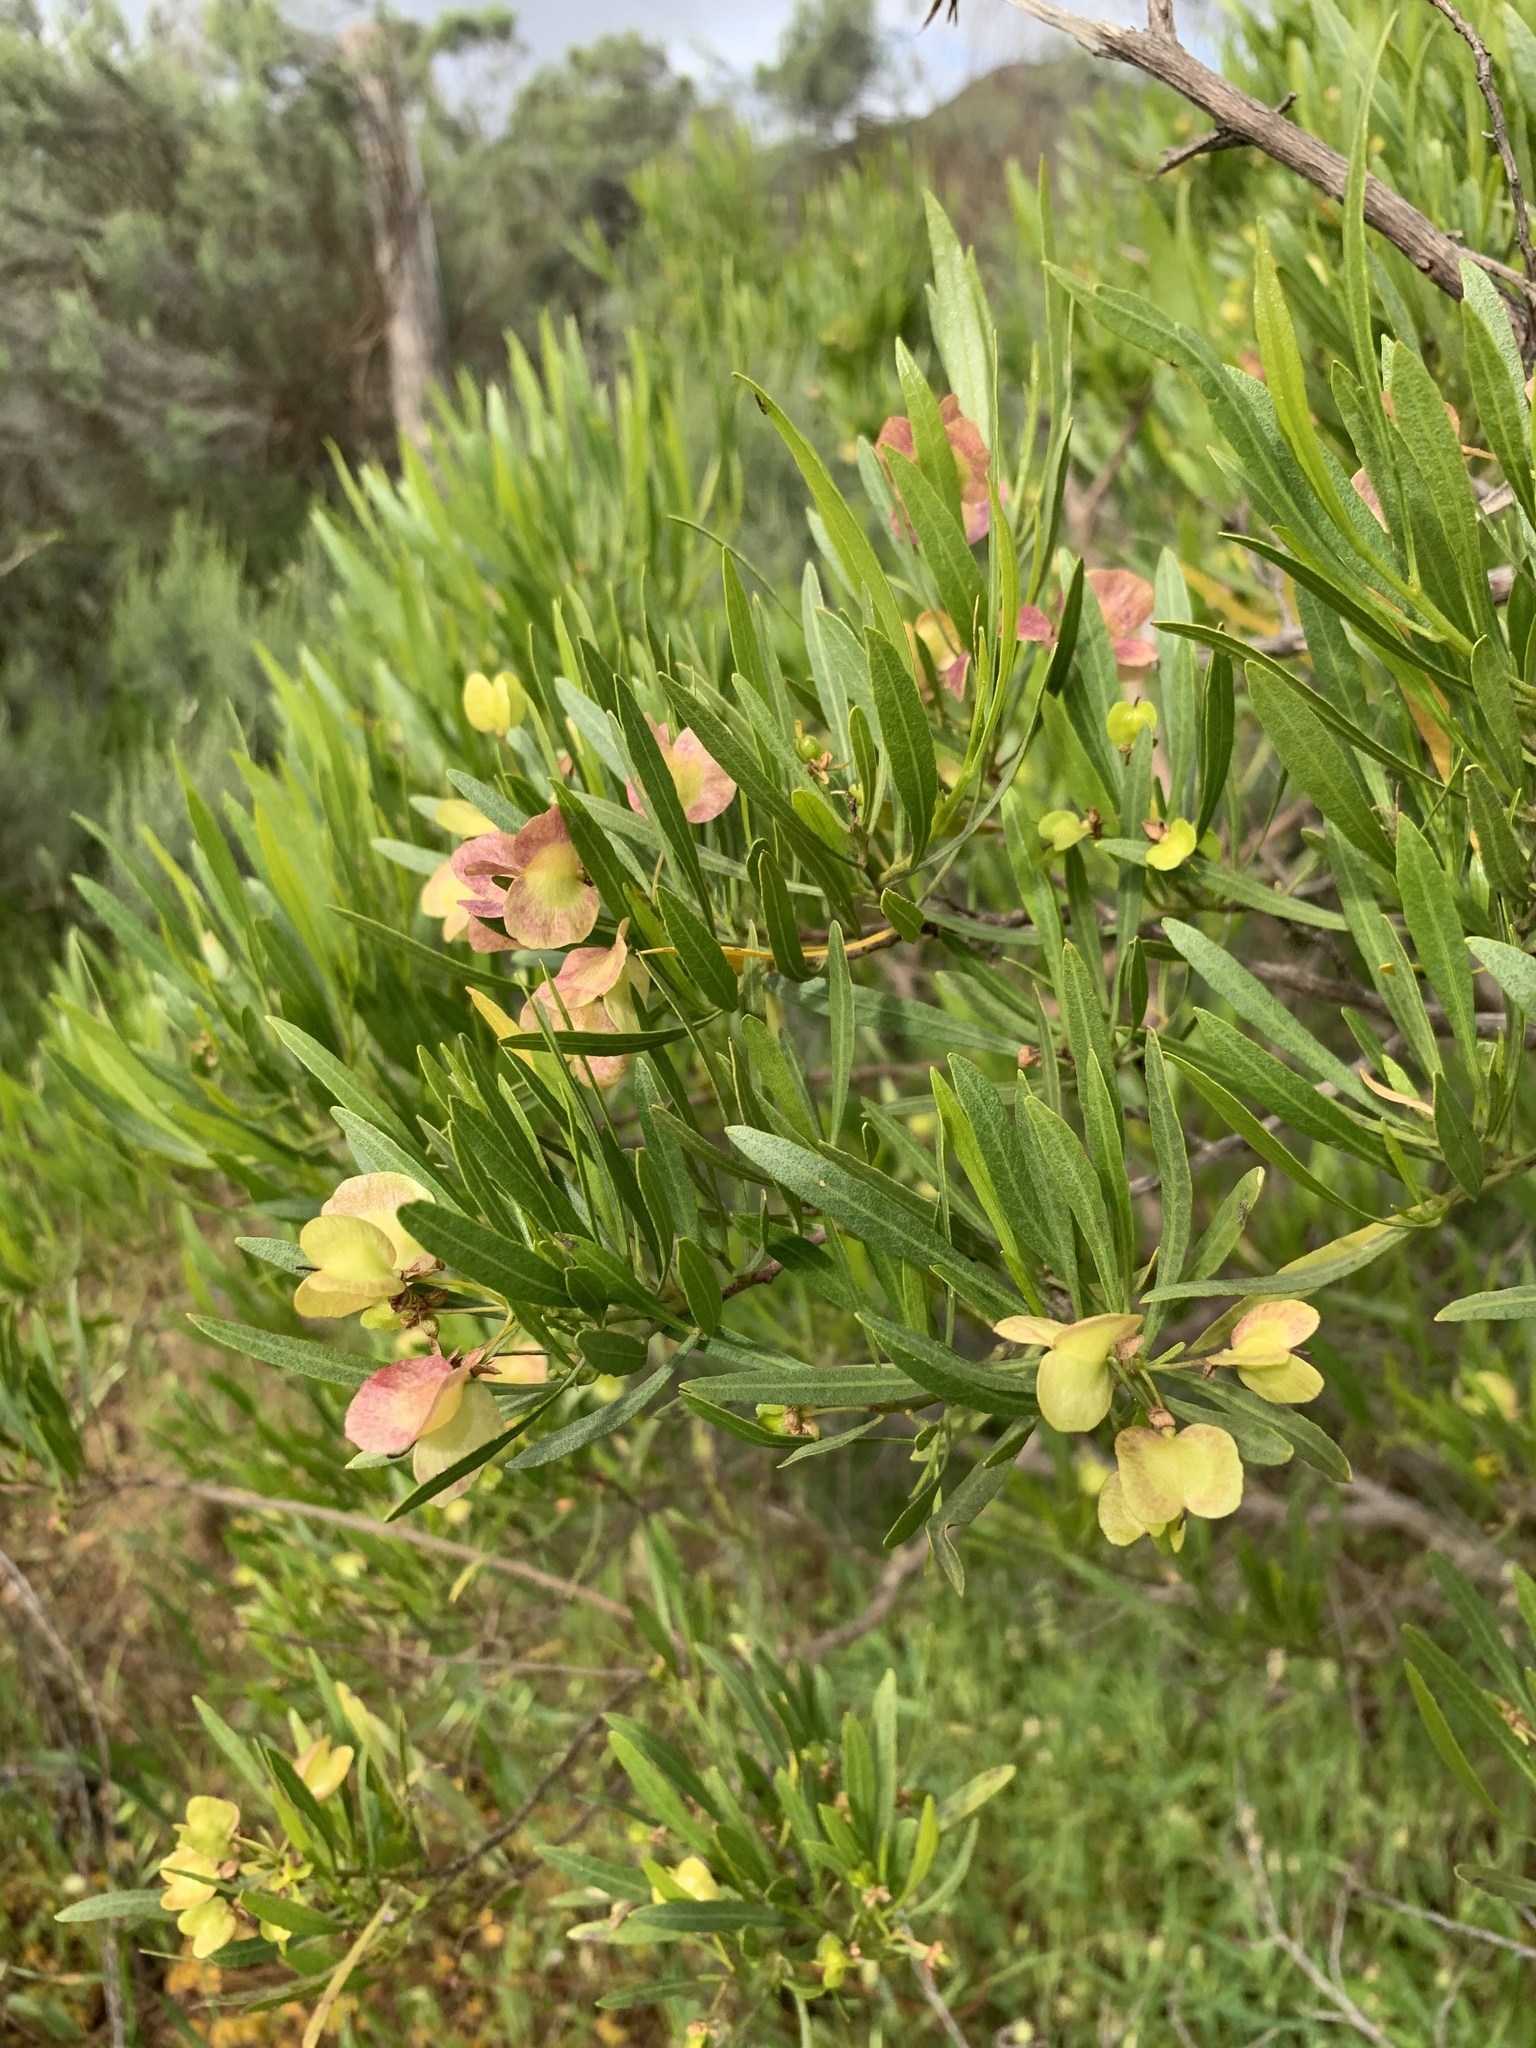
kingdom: Plantae
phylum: Tracheophyta
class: Magnoliopsida
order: Sapindales
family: Sapindaceae
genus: Dodonaea
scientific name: Dodonaea viscosa
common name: Hopbush
